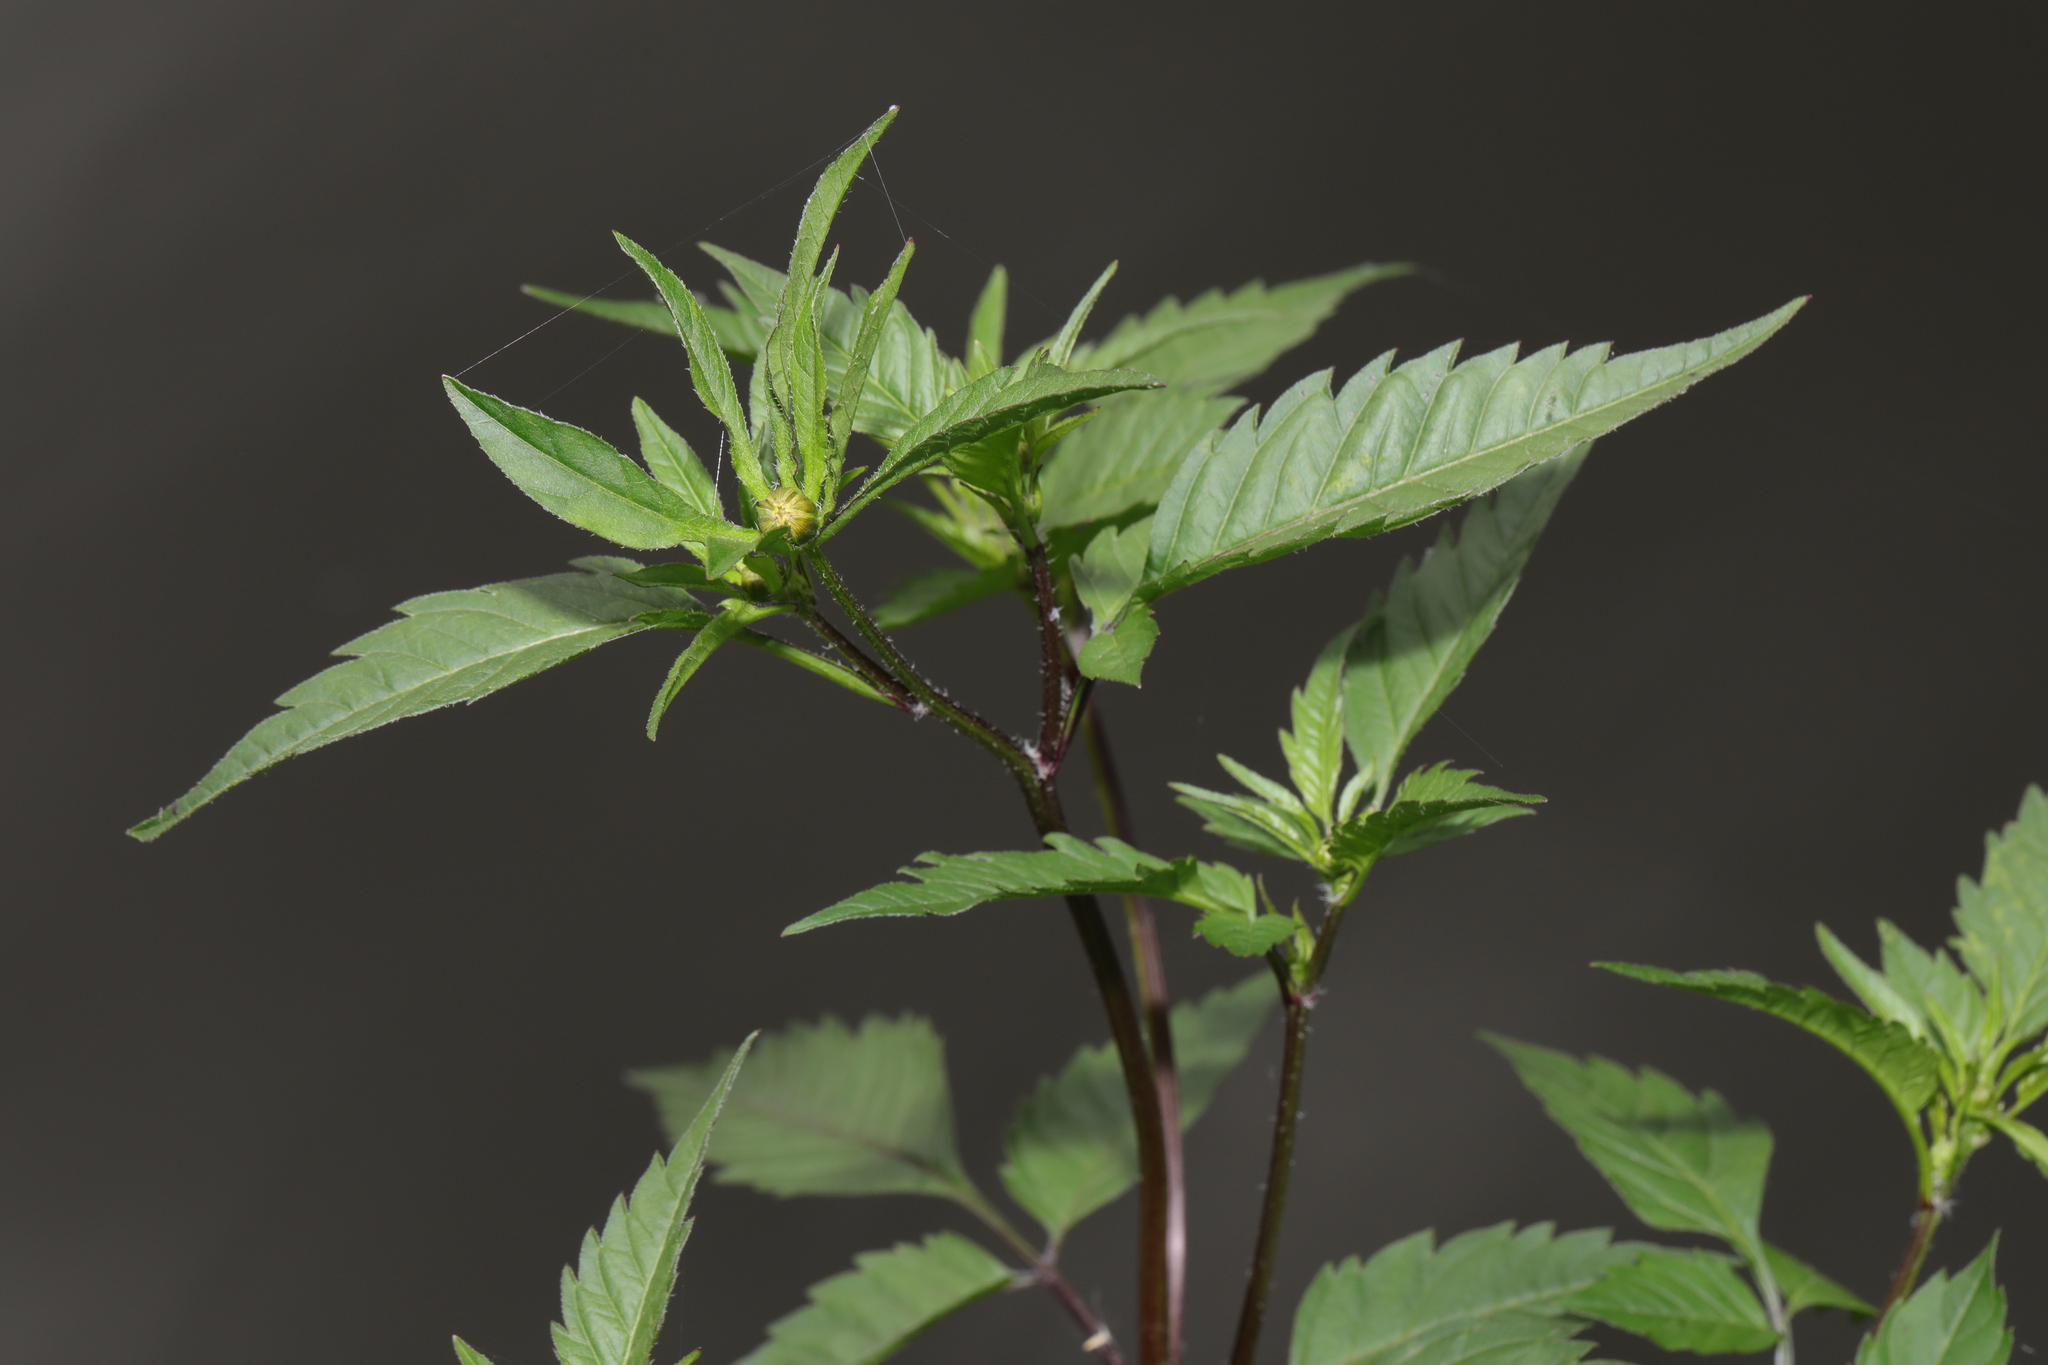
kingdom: Plantae
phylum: Tracheophyta
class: Magnoliopsida
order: Asterales
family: Asteraceae
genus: Bidens
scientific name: Bidens frondosa
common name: Beggarticks
